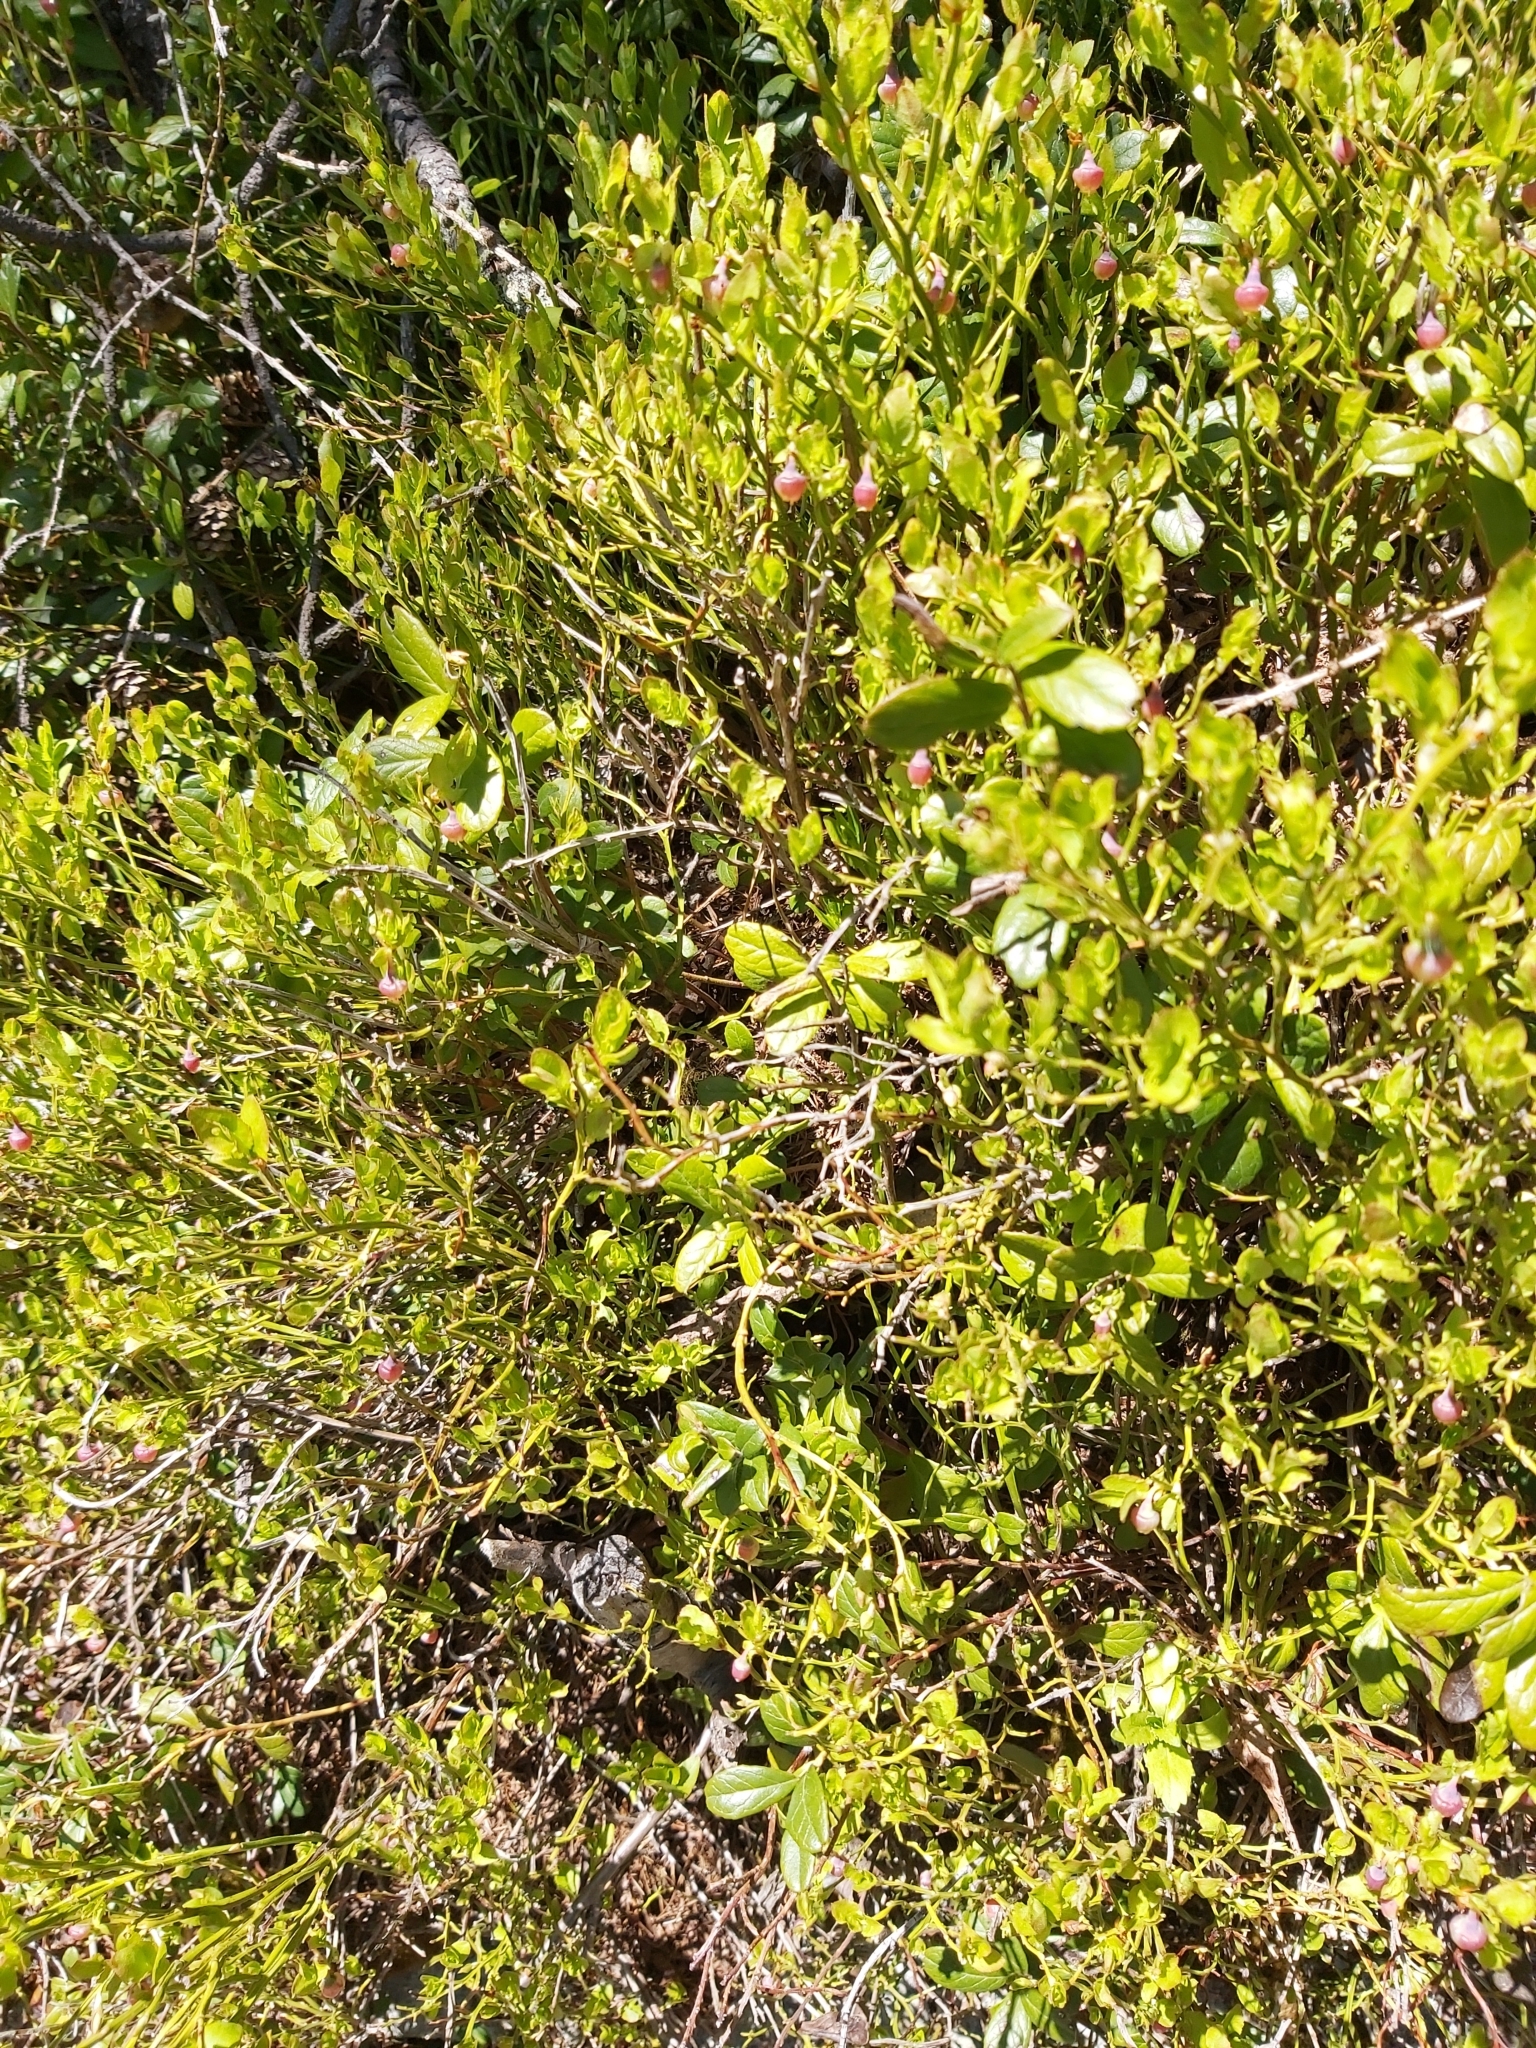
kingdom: Plantae
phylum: Tracheophyta
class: Magnoliopsida
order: Ericales
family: Ericaceae
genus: Vaccinium
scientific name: Vaccinium myrtillus
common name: Bilberry
